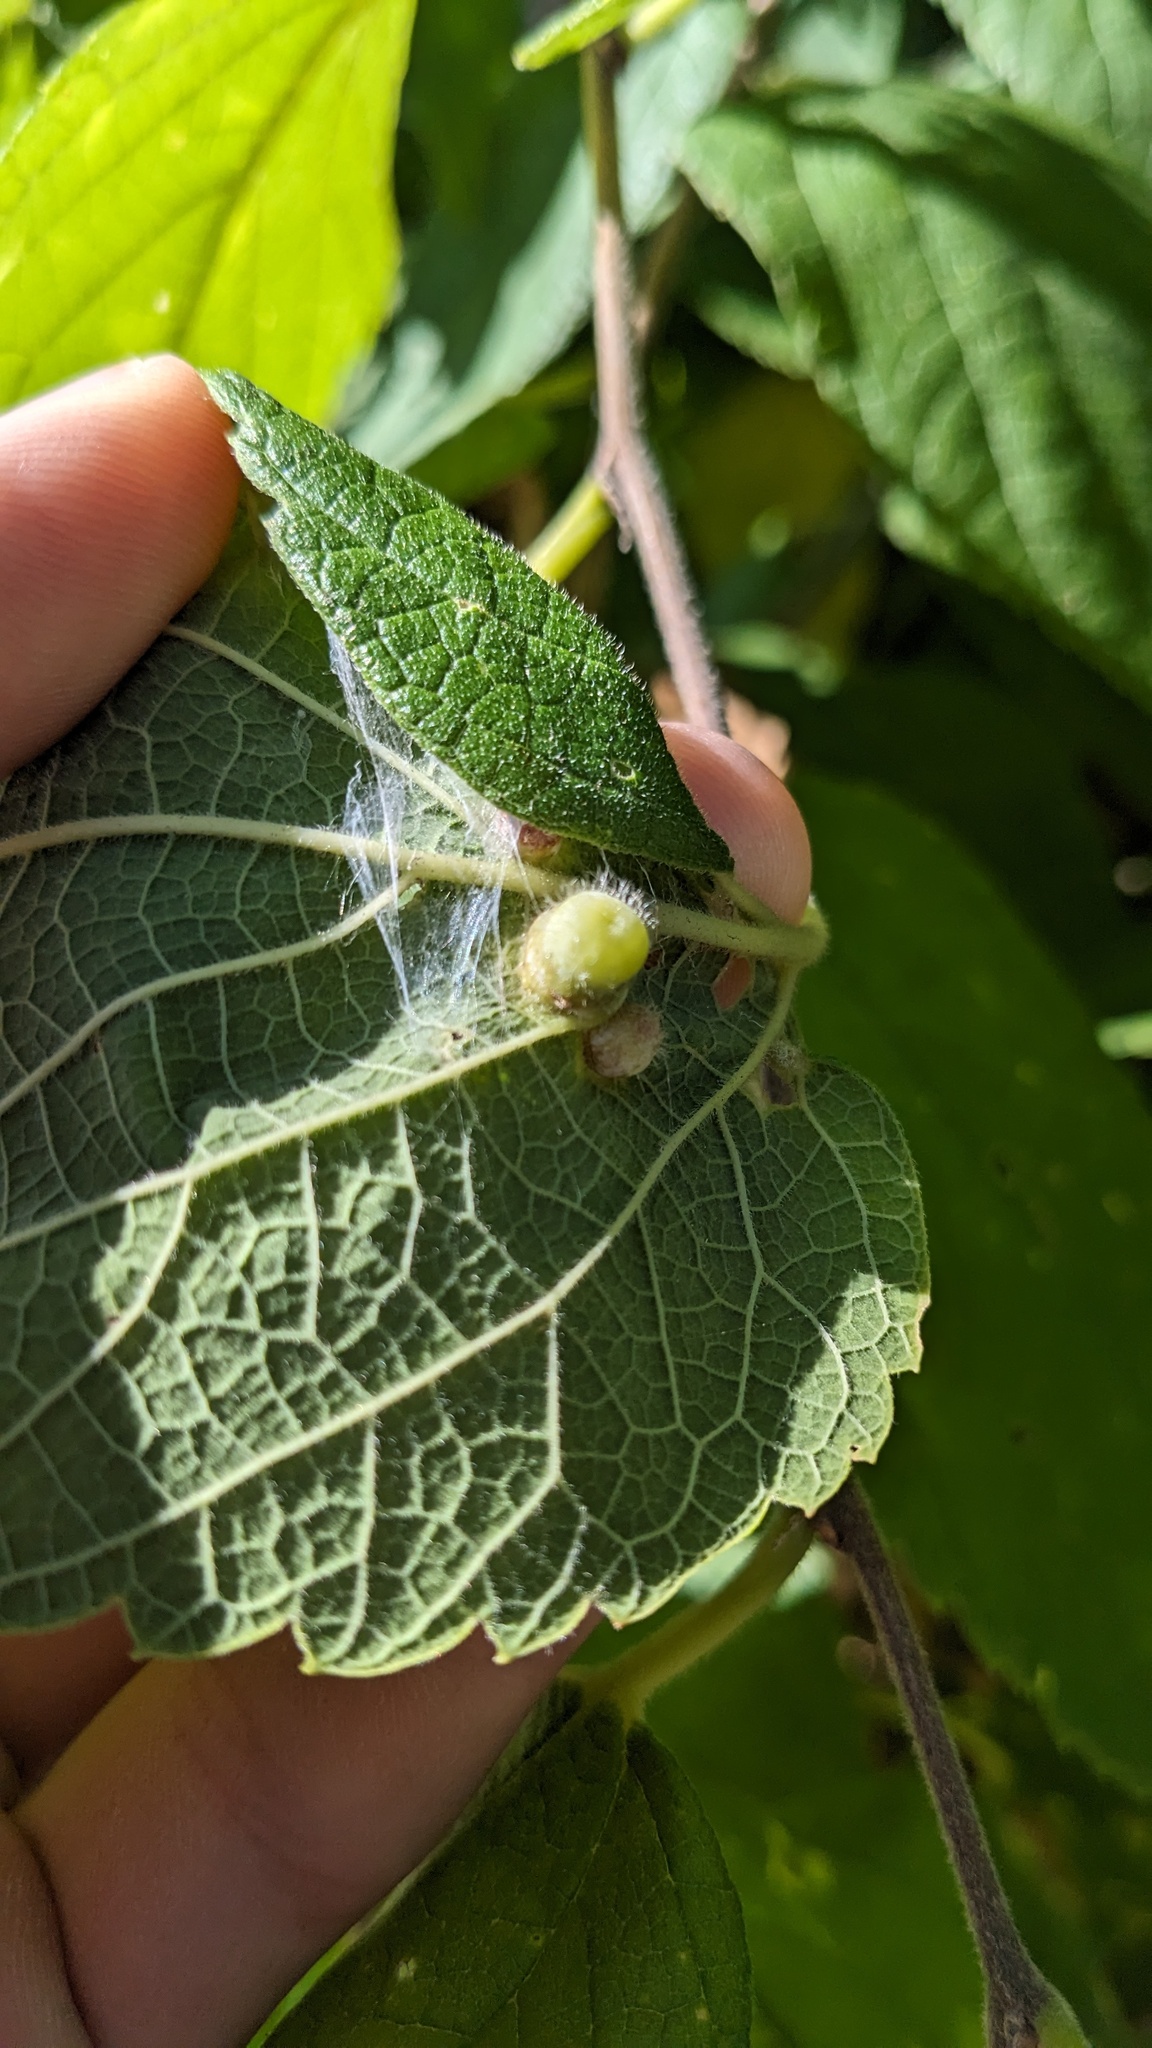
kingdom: Animalia
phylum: Arthropoda
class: Insecta
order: Hemiptera
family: Aphalaridae
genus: Pachypsylla
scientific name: Pachypsylla celtidismamma
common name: Hackberry nipplegall psyllid
